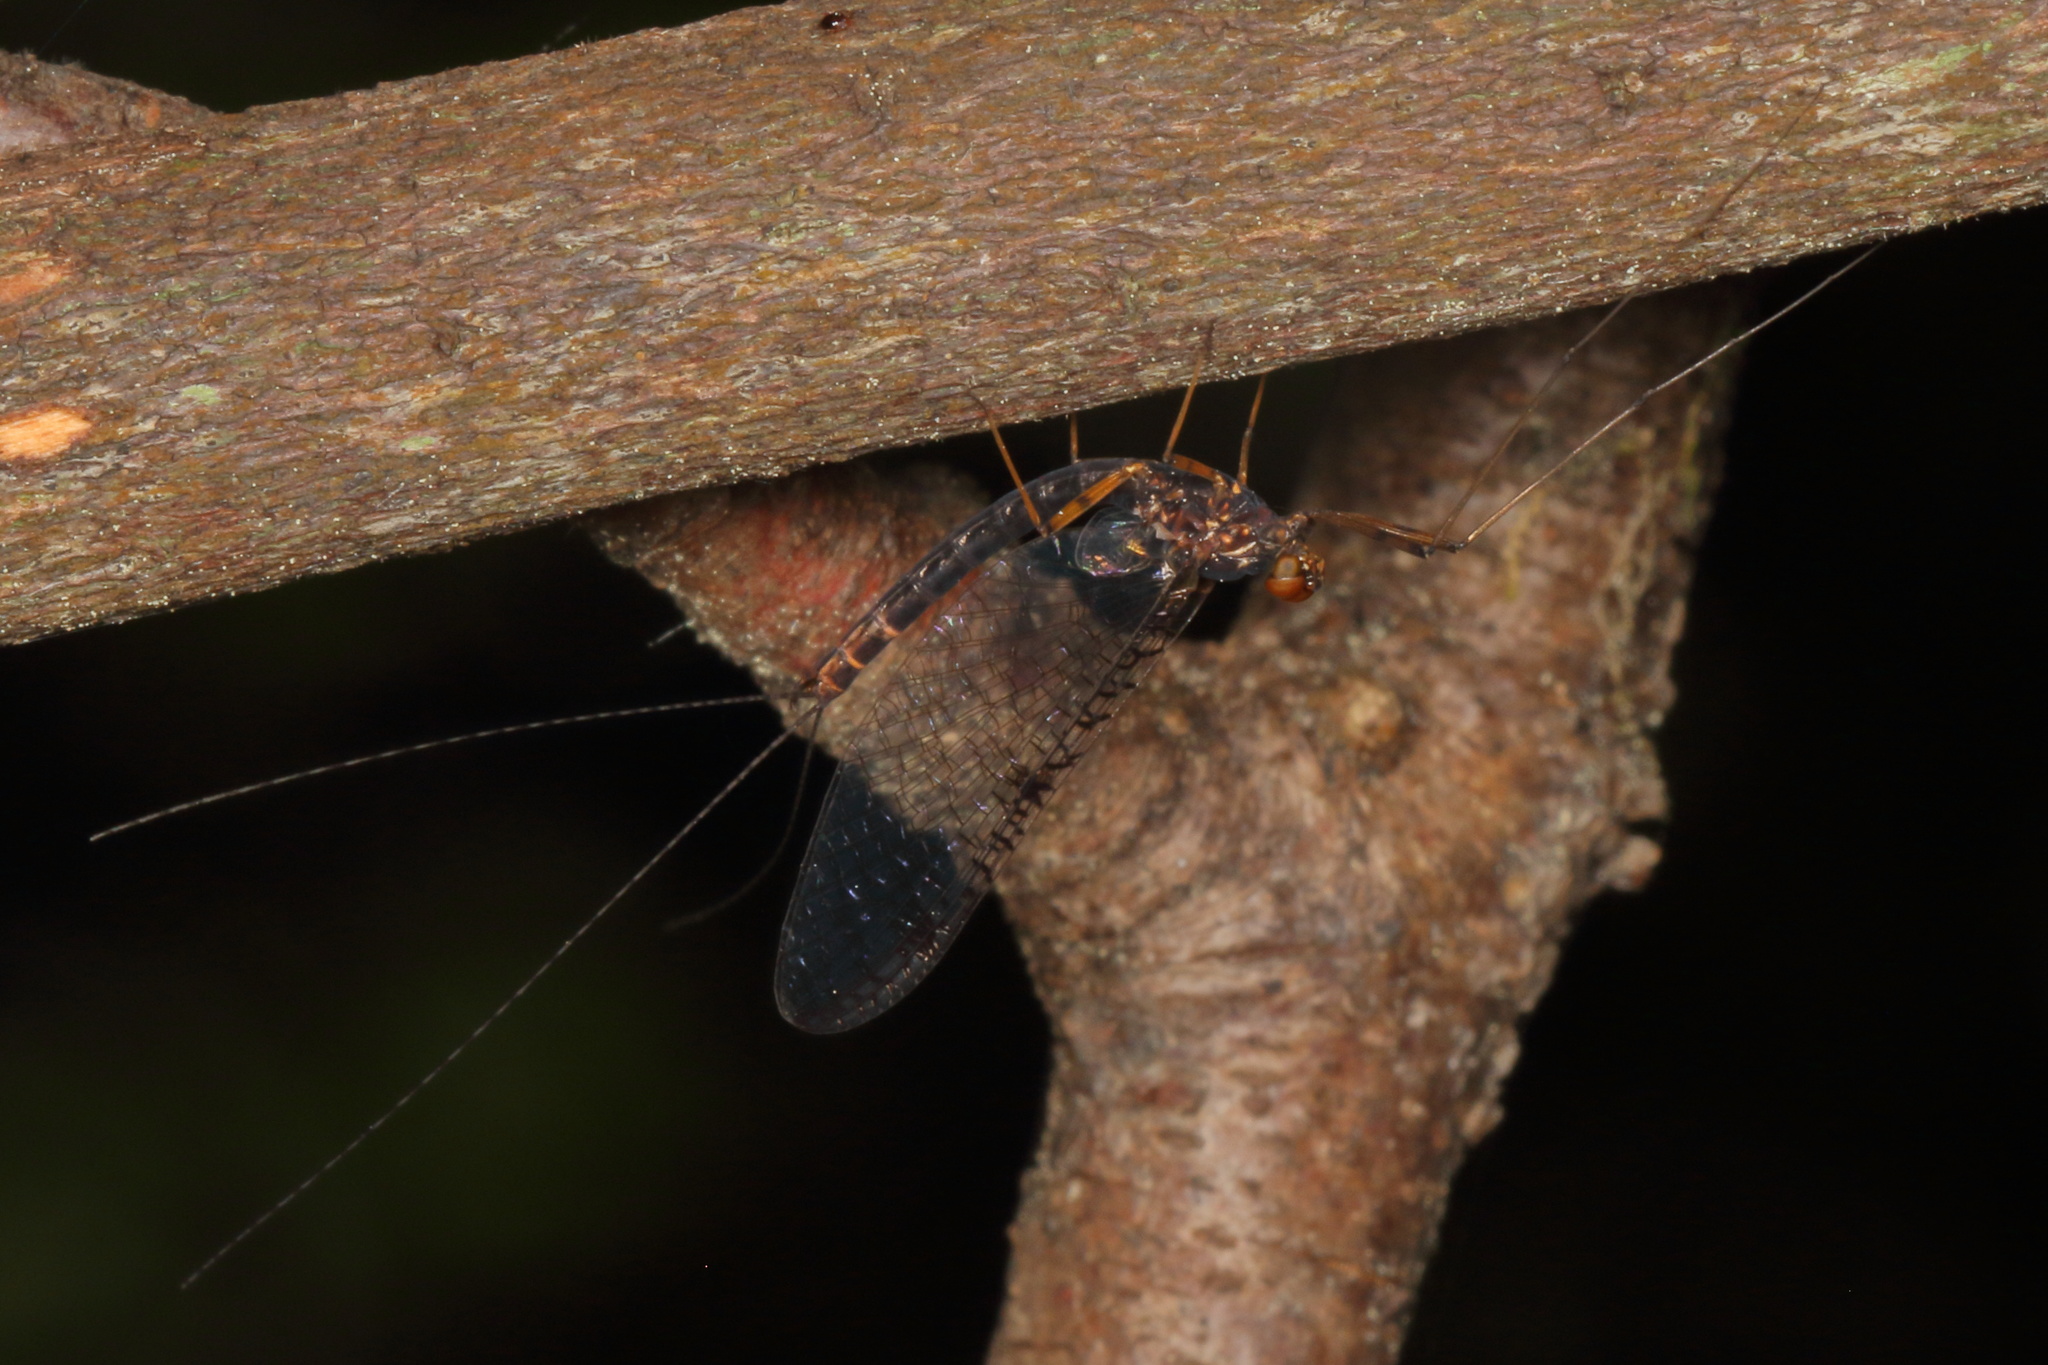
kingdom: Animalia
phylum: Arthropoda
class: Insecta
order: Ephemeroptera
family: Leptophlebiidae
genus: Neozephlebia
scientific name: Neozephlebia scita
